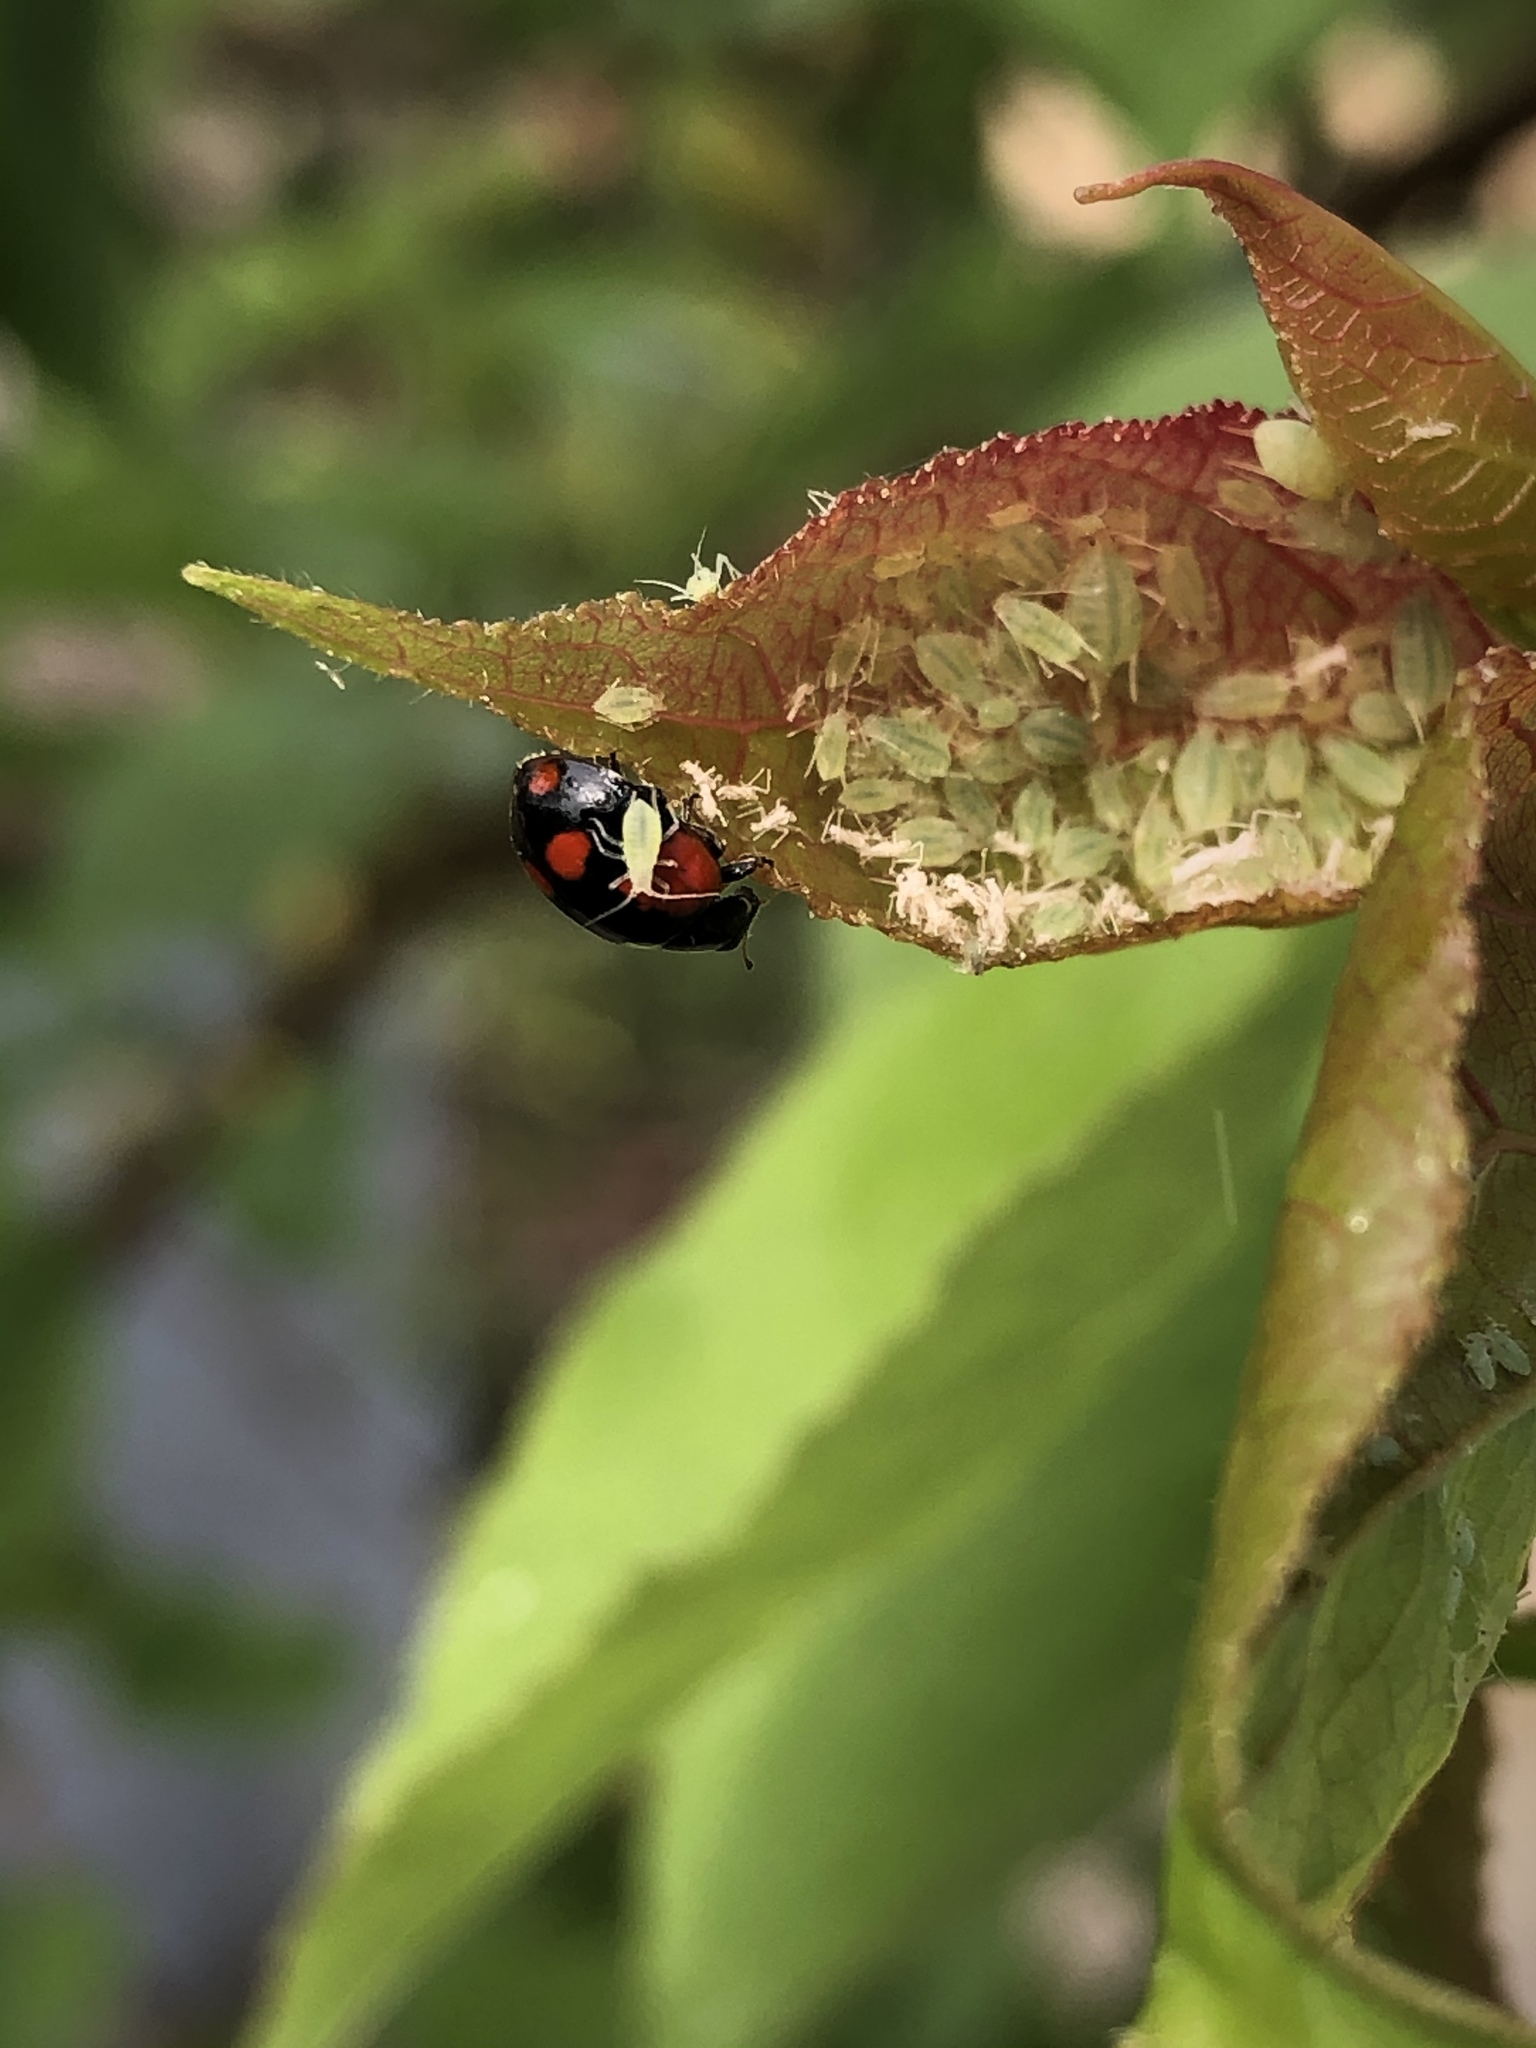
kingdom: Animalia
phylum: Arthropoda
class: Insecta
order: Coleoptera
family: Coccinellidae
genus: Adalia
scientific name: Adalia bipunctata
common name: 2-spot ladybird
